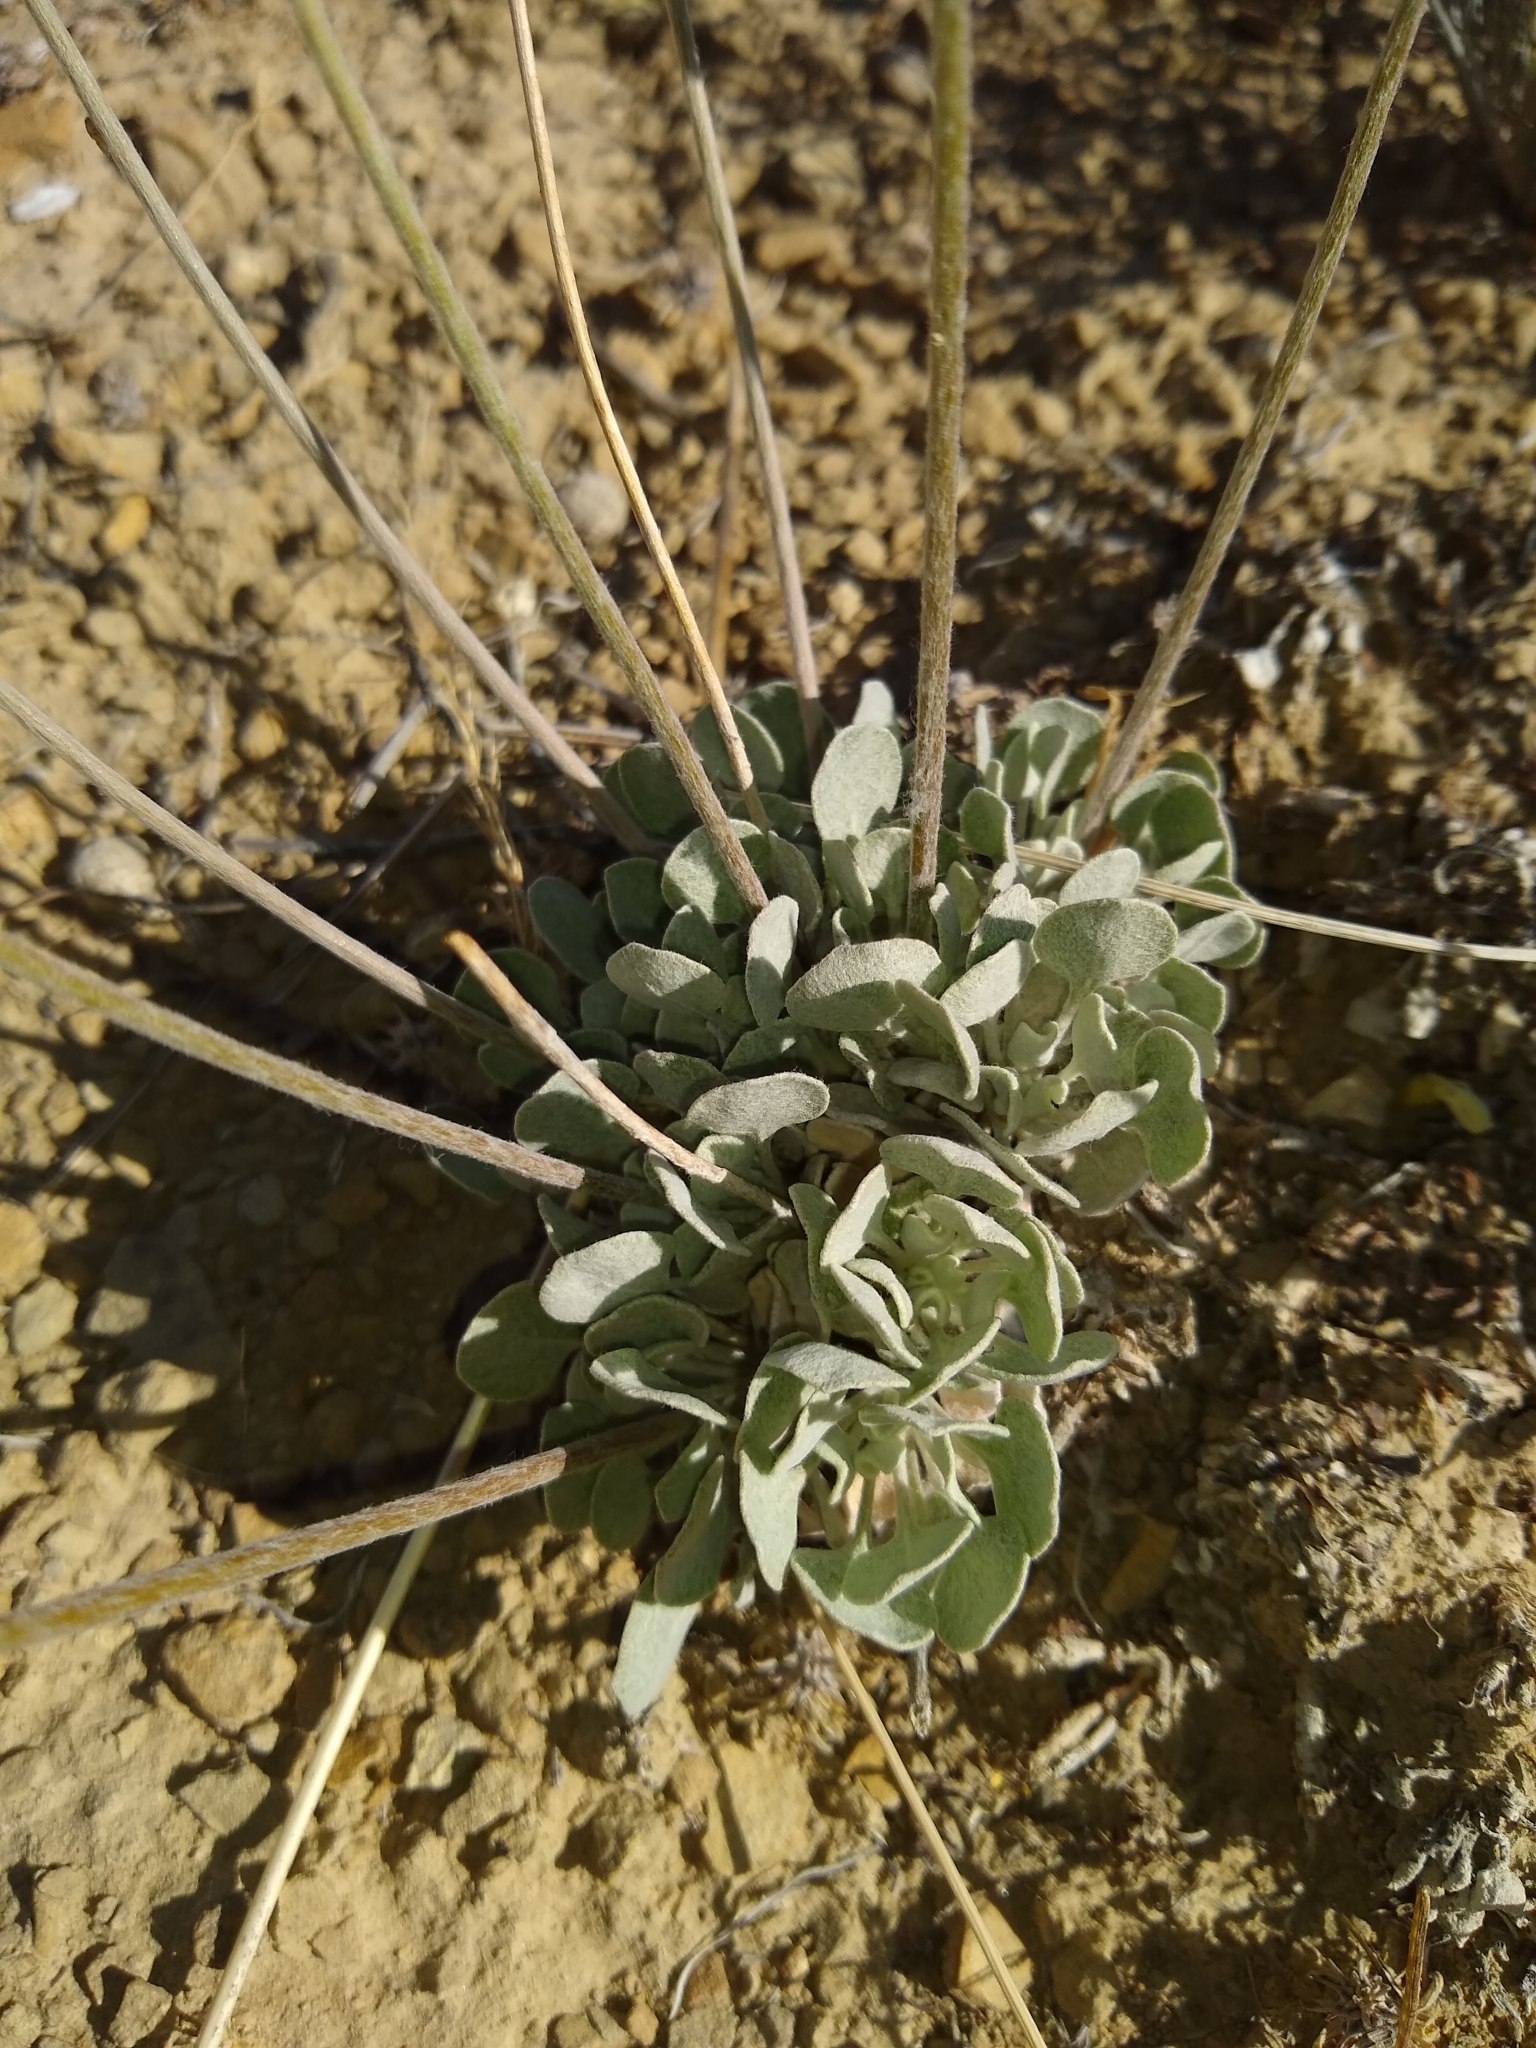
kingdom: Plantae
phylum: Tracheophyta
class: Magnoliopsida
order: Caryophyllales
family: Polygonaceae
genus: Eriogonum
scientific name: Eriogonum ovalifolium
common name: Cushion buckwheat
